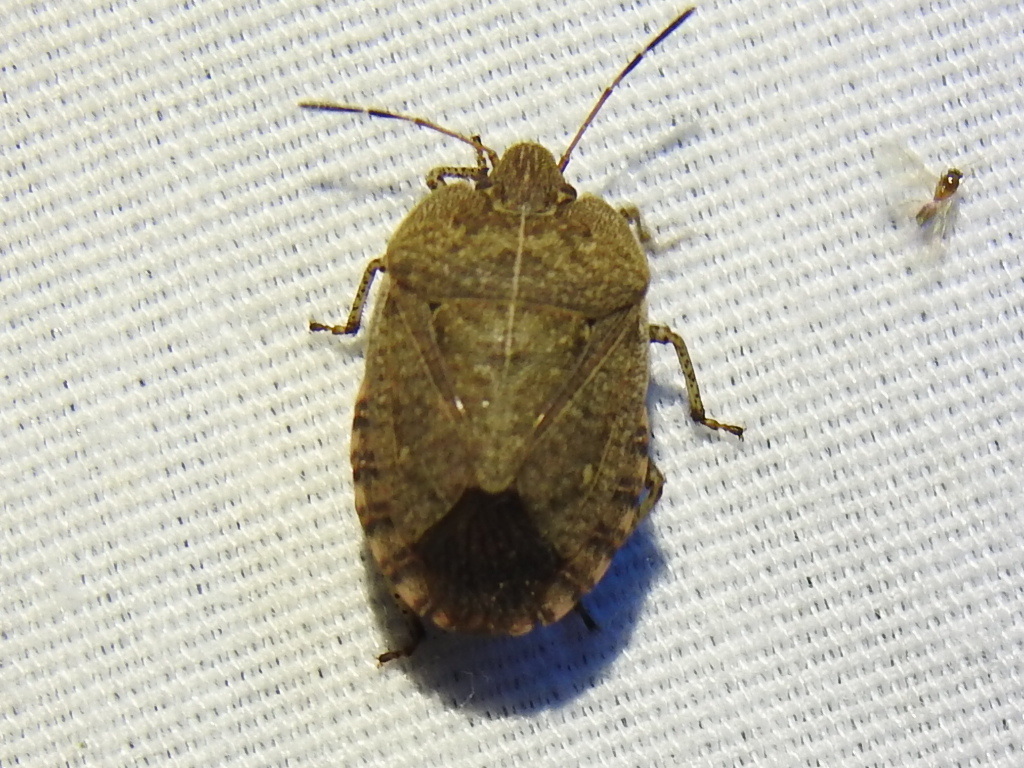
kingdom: Animalia
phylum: Arthropoda
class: Insecta
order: Hemiptera
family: Pentatomidae
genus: Menecles
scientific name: Menecles insertus
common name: Elf shoe stink bug
